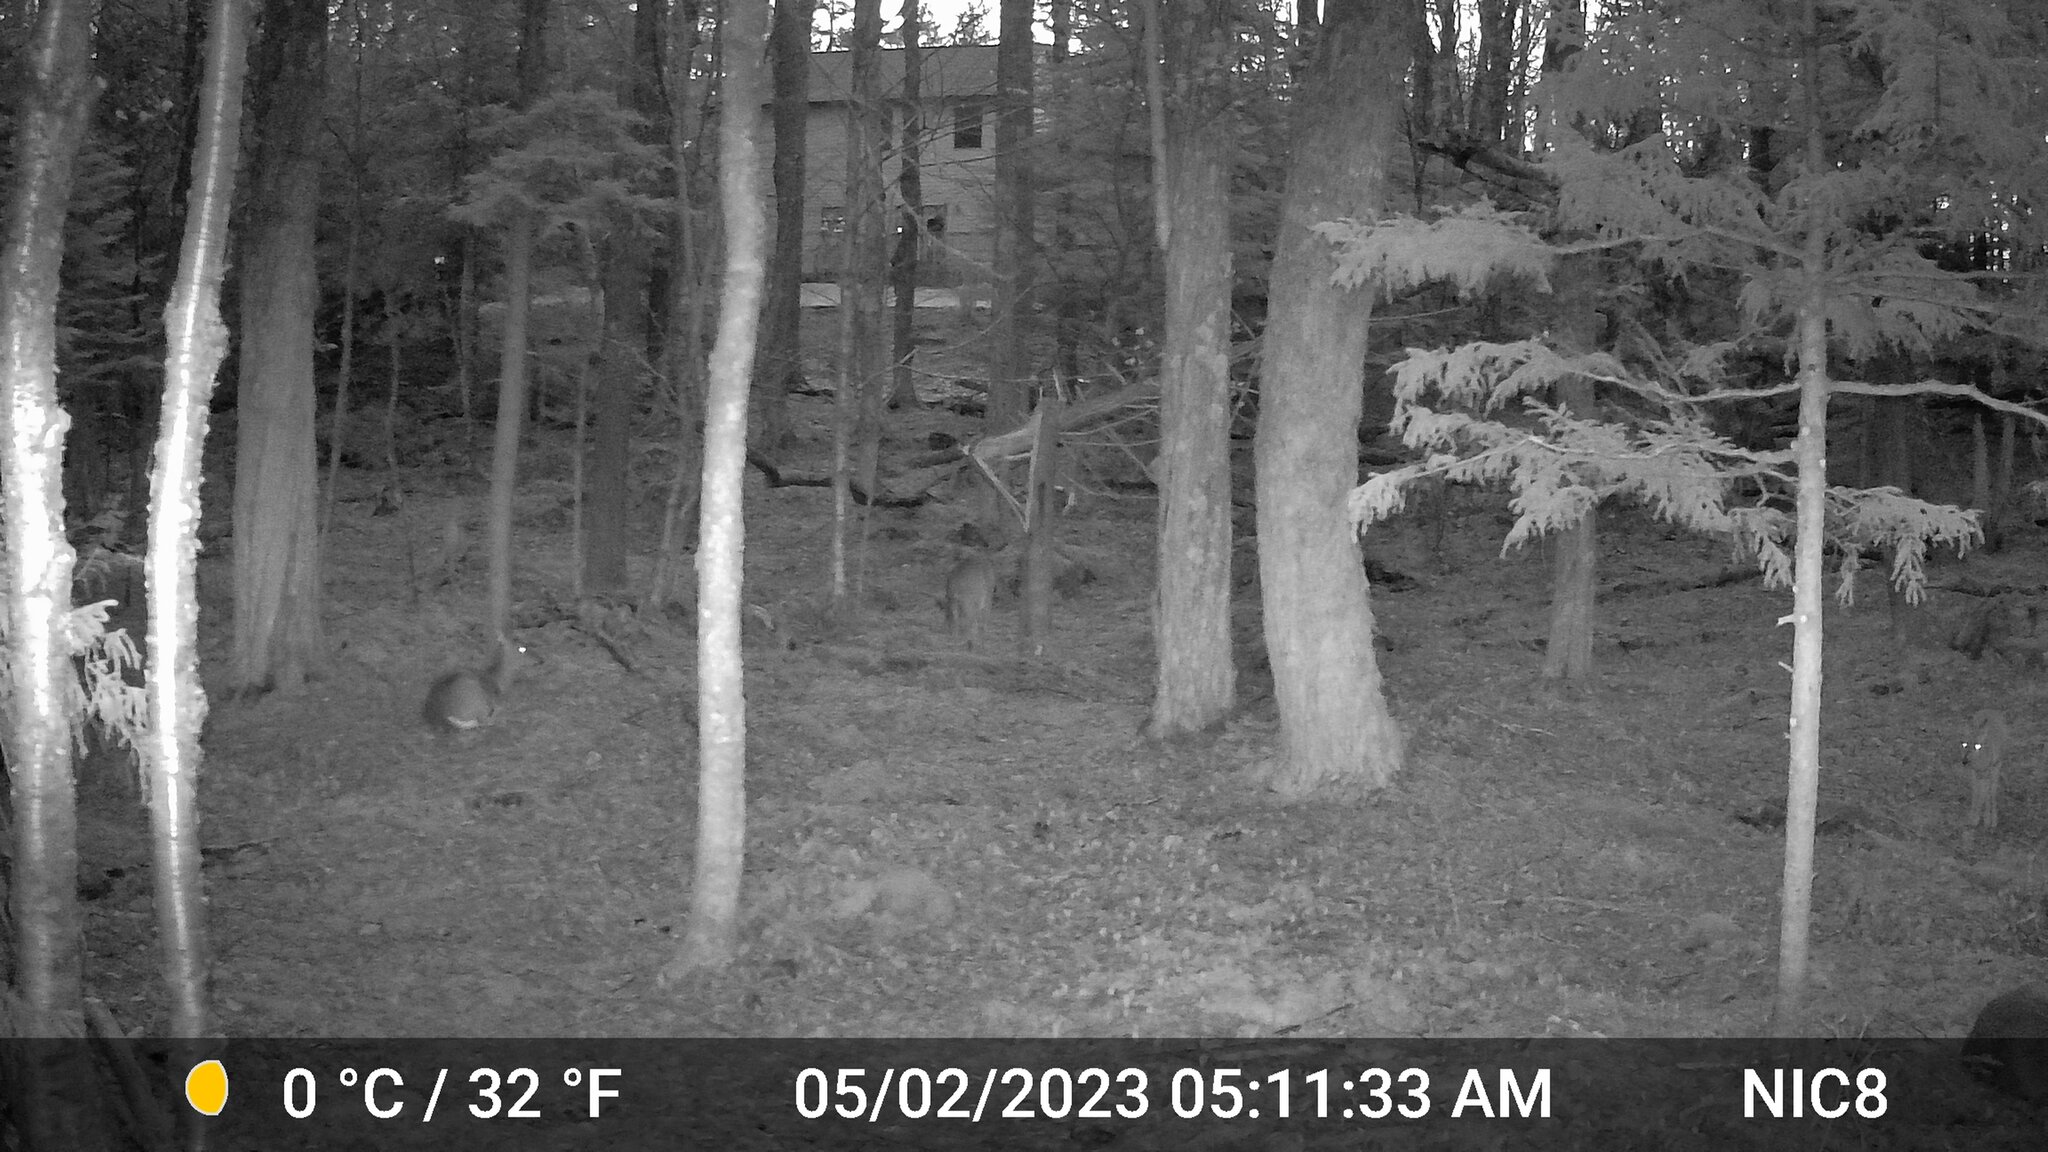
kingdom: Animalia
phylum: Chordata
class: Mammalia
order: Artiodactyla
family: Cervidae
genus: Odocoileus
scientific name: Odocoileus virginianus
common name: White-tailed deer
